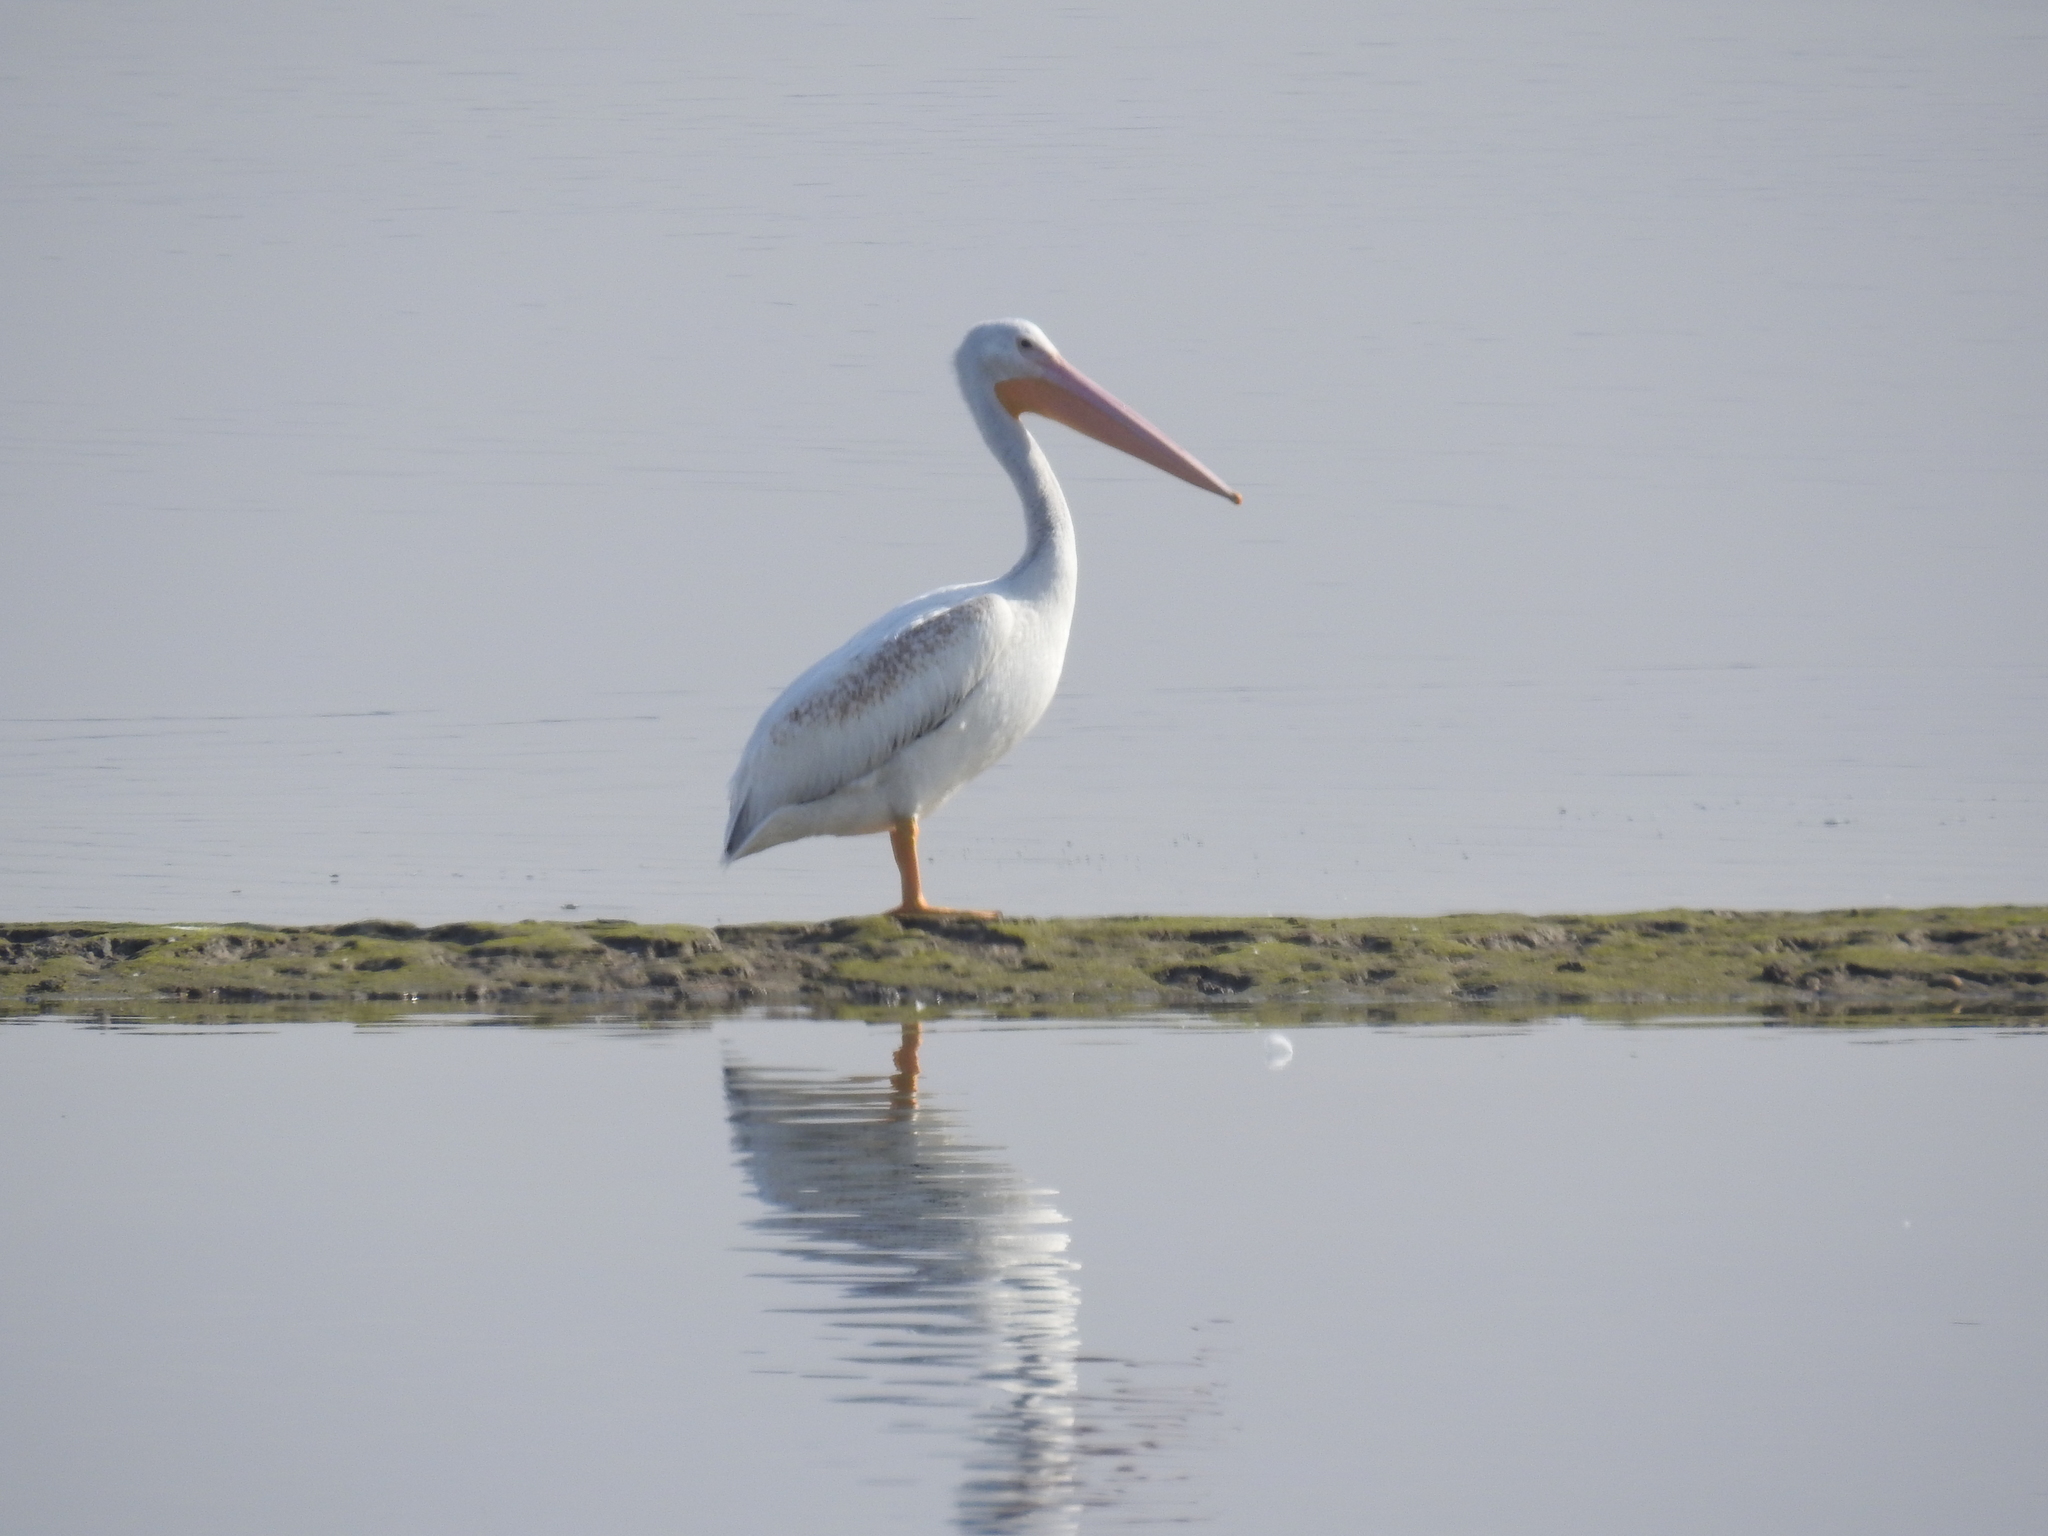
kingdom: Animalia
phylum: Chordata
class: Aves
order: Pelecaniformes
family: Pelecanidae
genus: Pelecanus
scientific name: Pelecanus erythrorhynchos
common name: American white pelican
